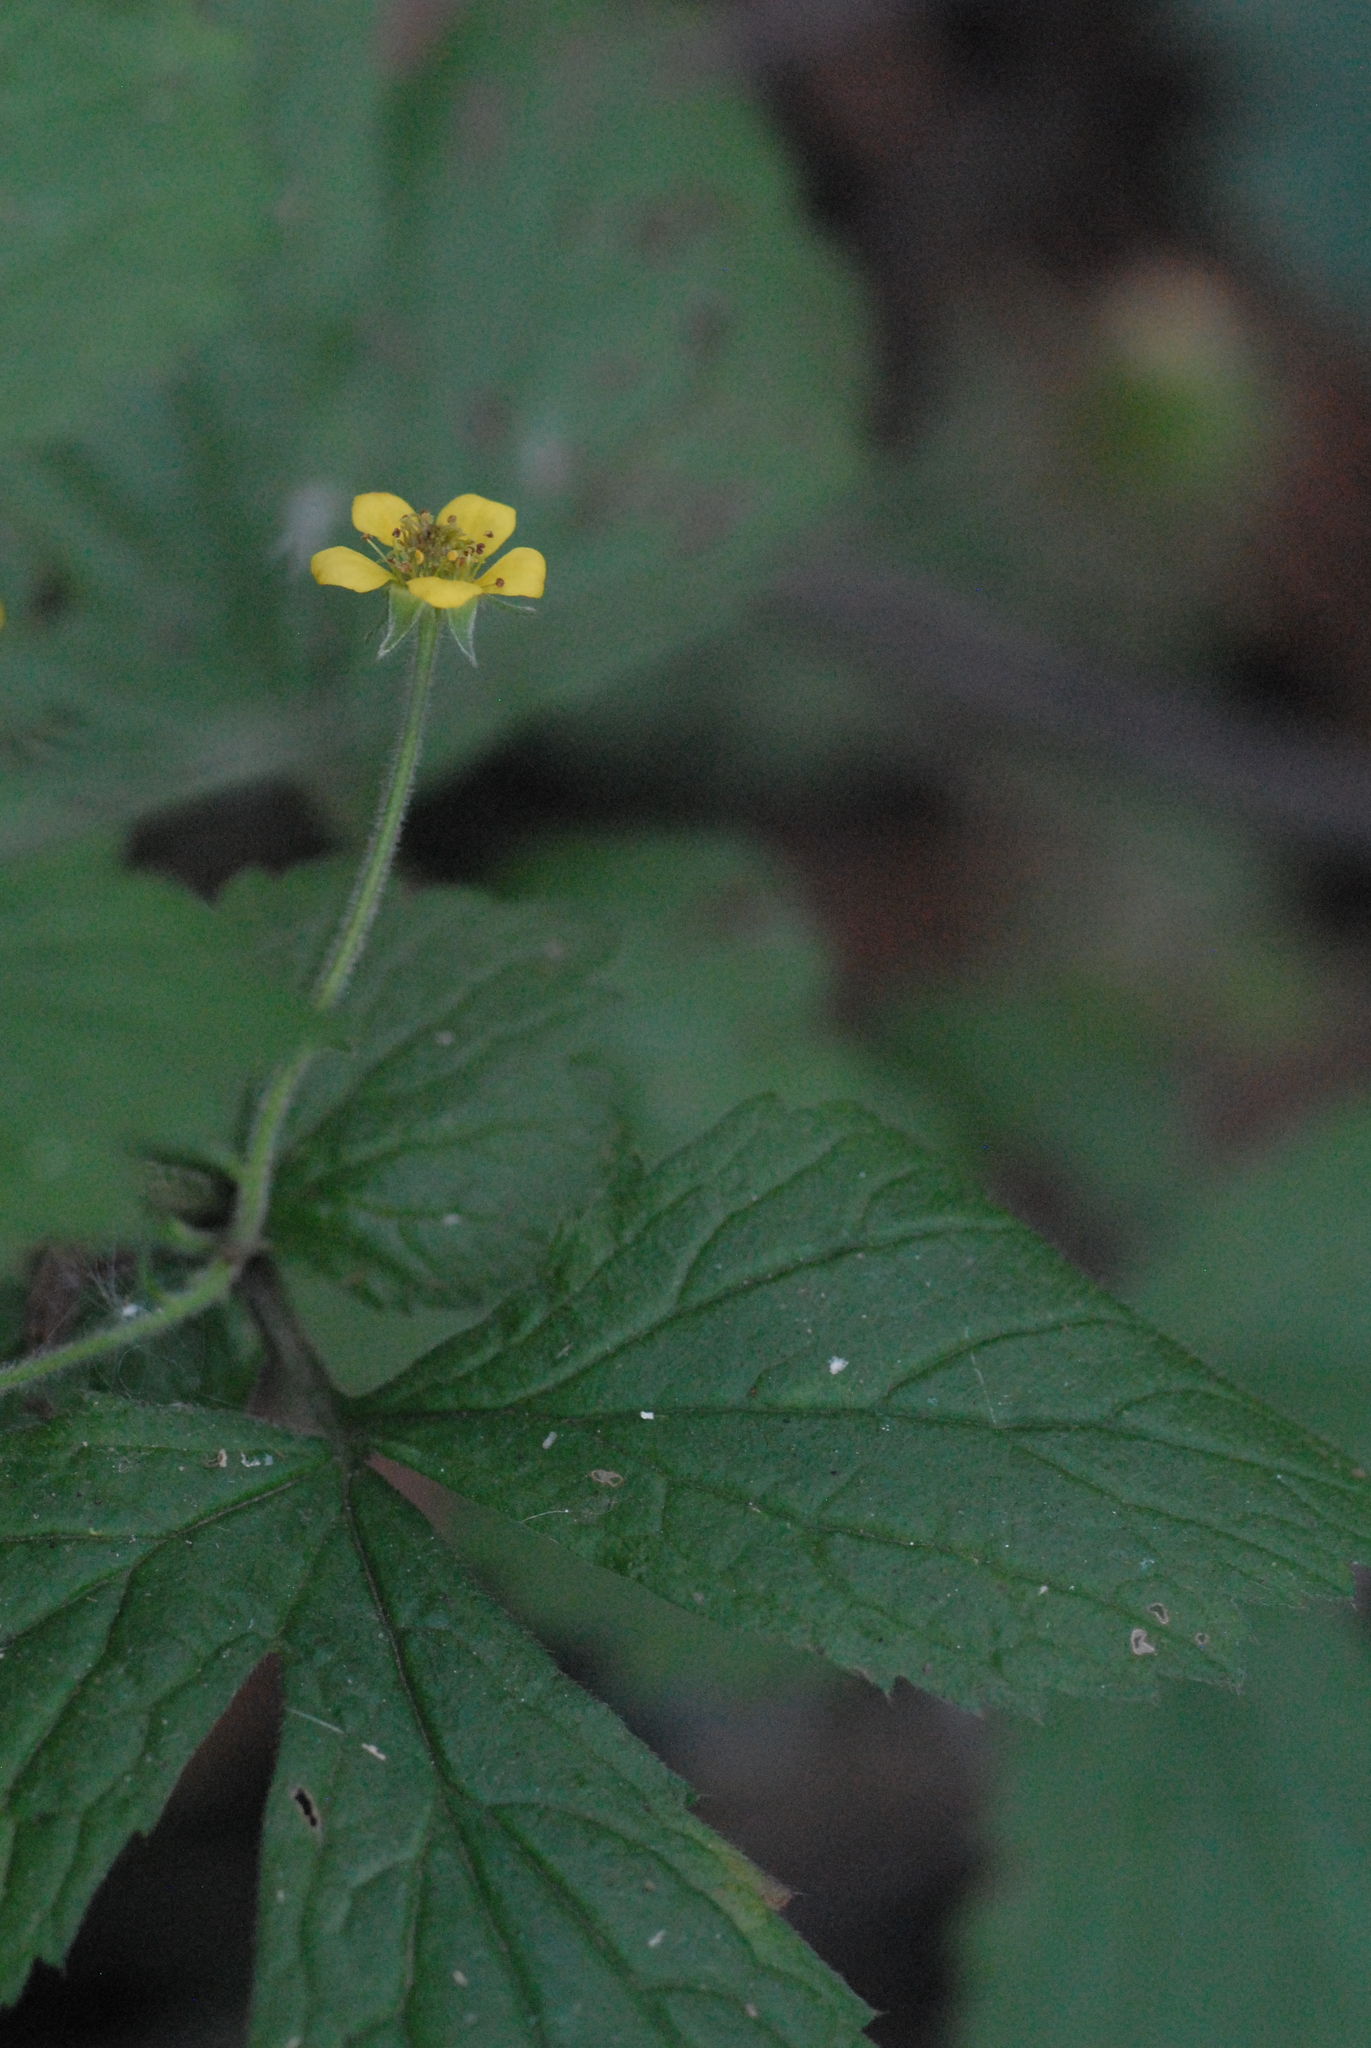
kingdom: Plantae
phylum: Tracheophyta
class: Magnoliopsida
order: Rosales
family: Rosaceae
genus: Geum
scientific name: Geum urbanum
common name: Wood avens
